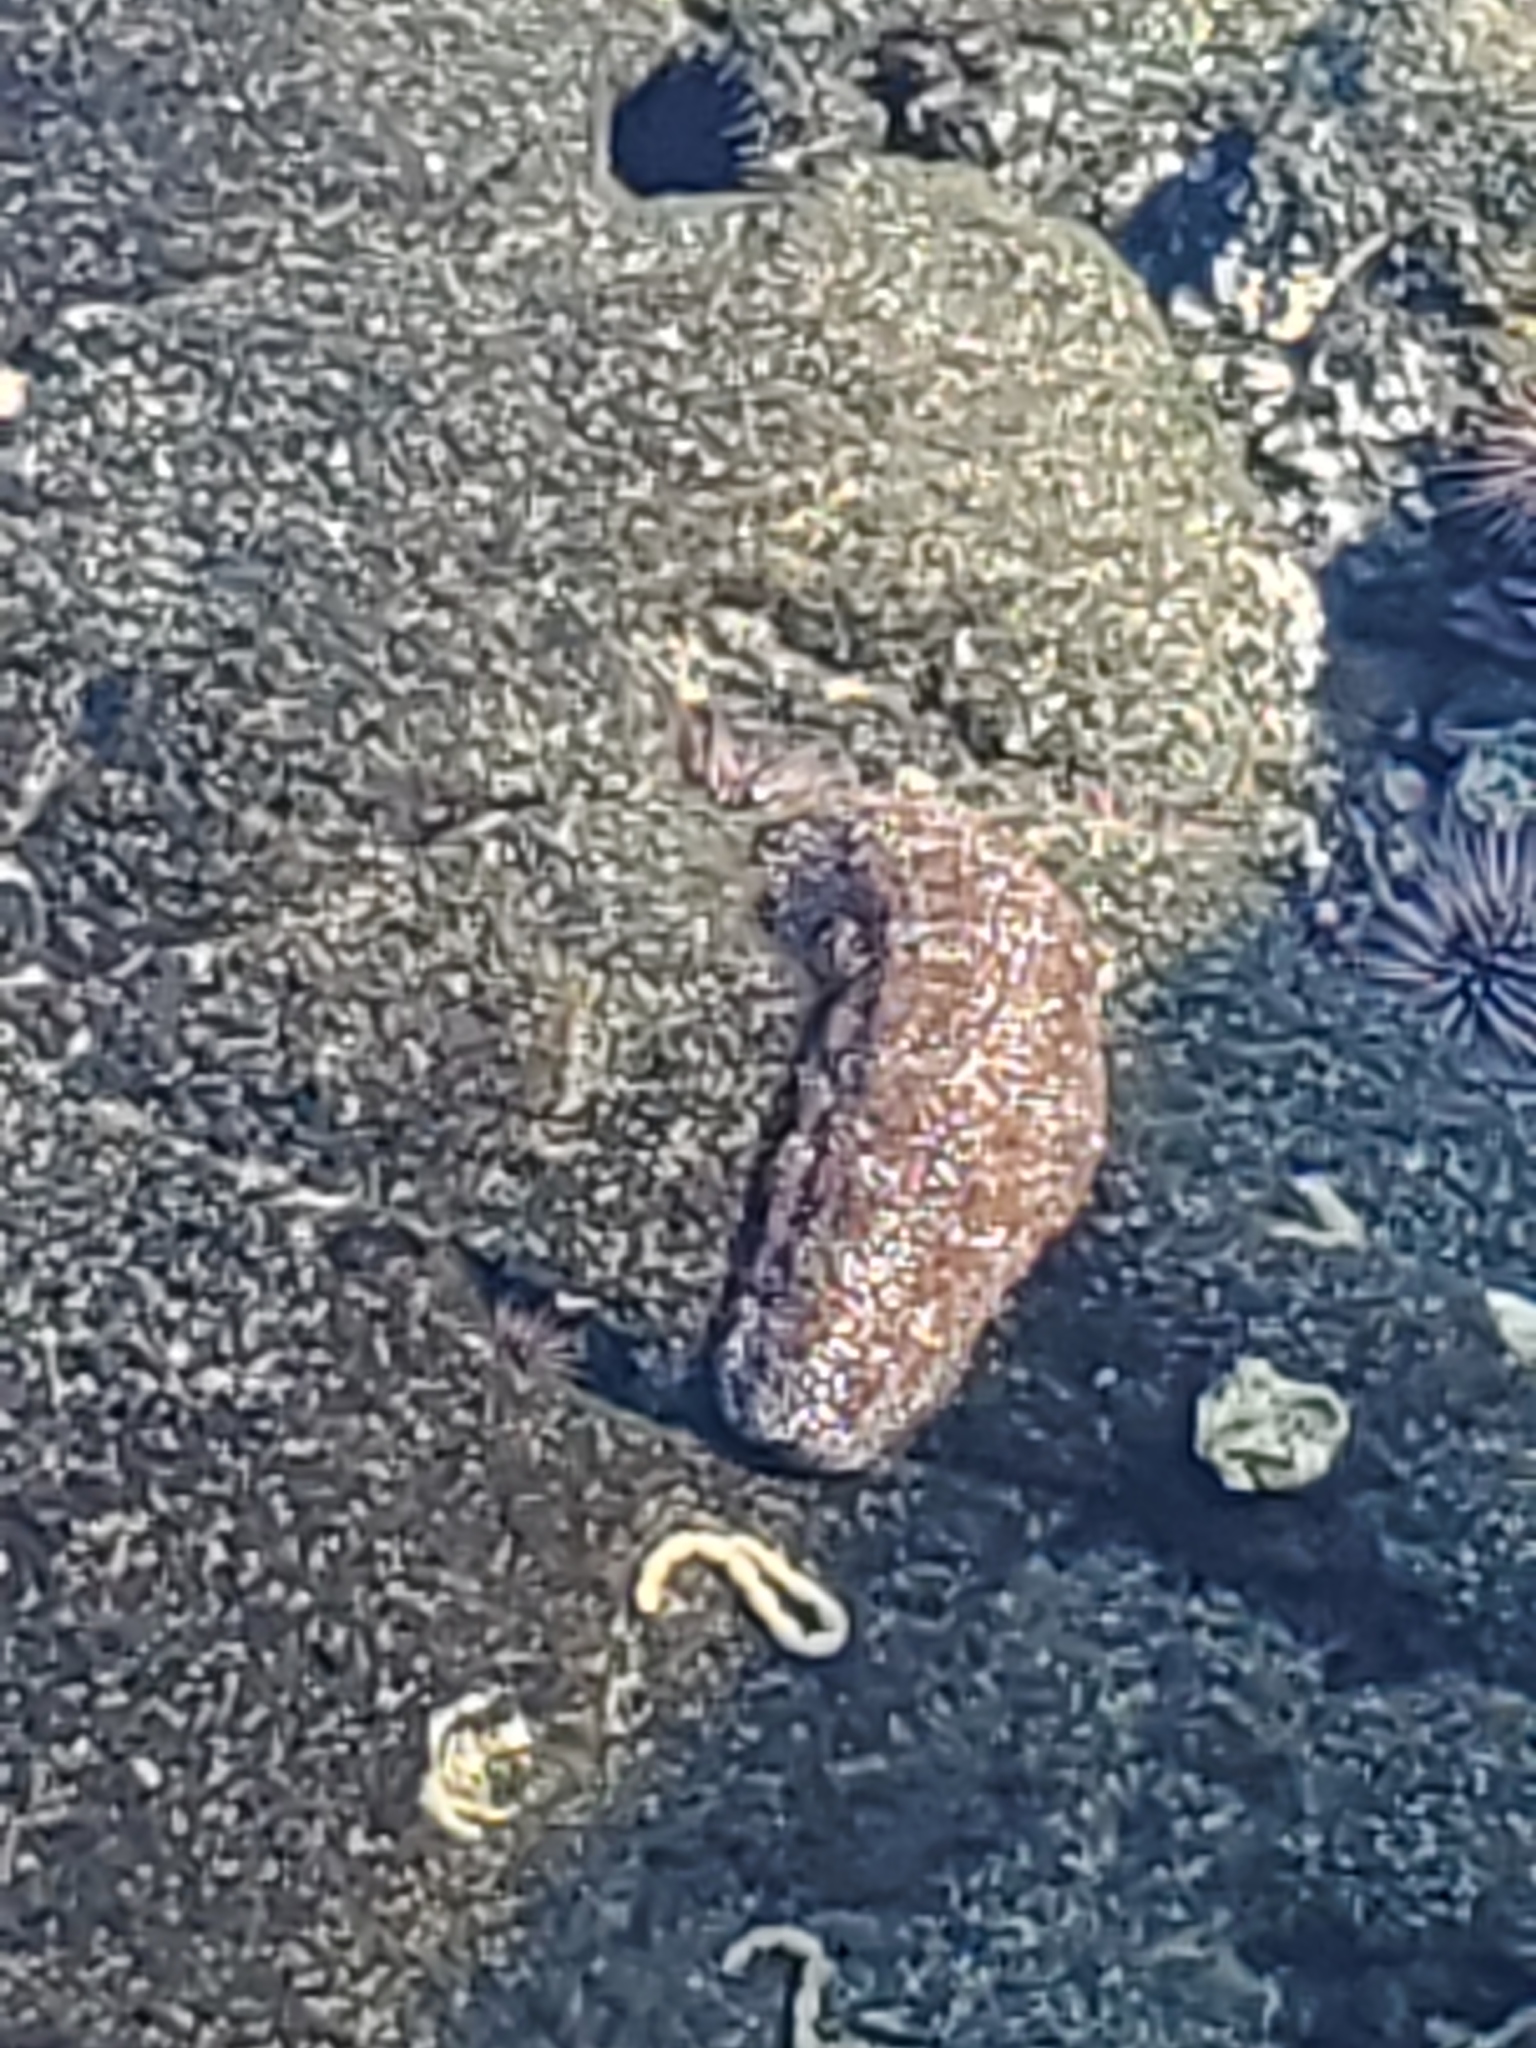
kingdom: Animalia
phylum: Echinodermata
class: Holothuroidea
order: Holothuriida
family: Holothuriidae
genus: Actinopyga
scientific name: Actinopyga varians
